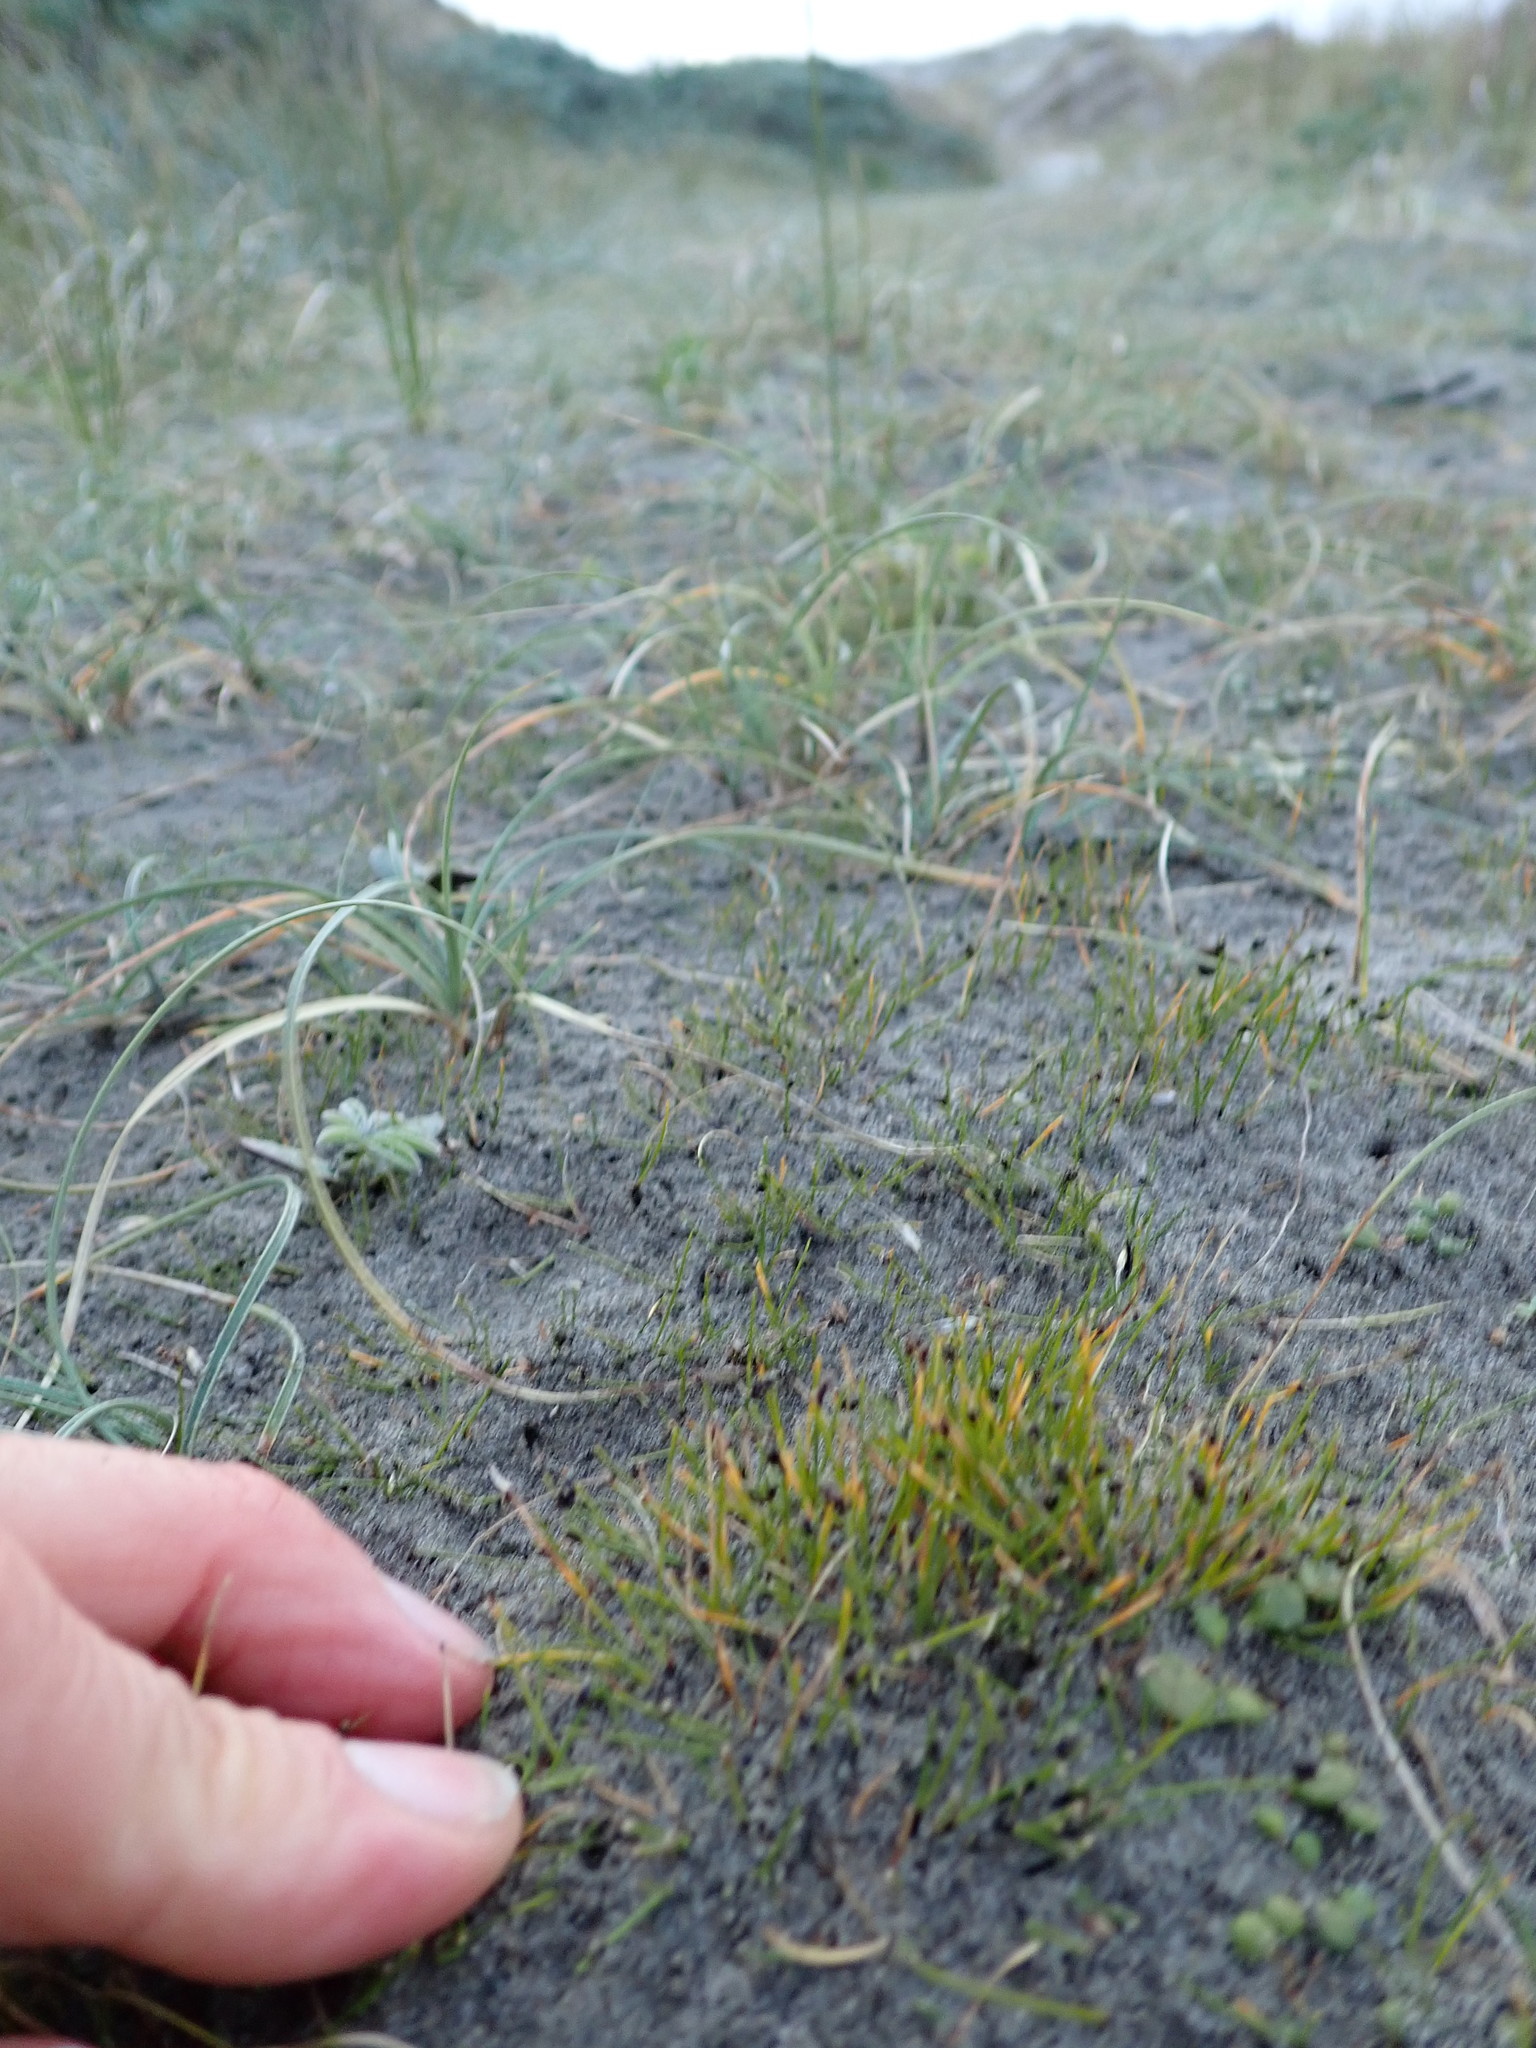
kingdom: Plantae
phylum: Tracheophyta
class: Liliopsida
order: Poales
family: Cyperaceae
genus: Isolepis
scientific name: Isolepis cernua
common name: Slender club-rush
